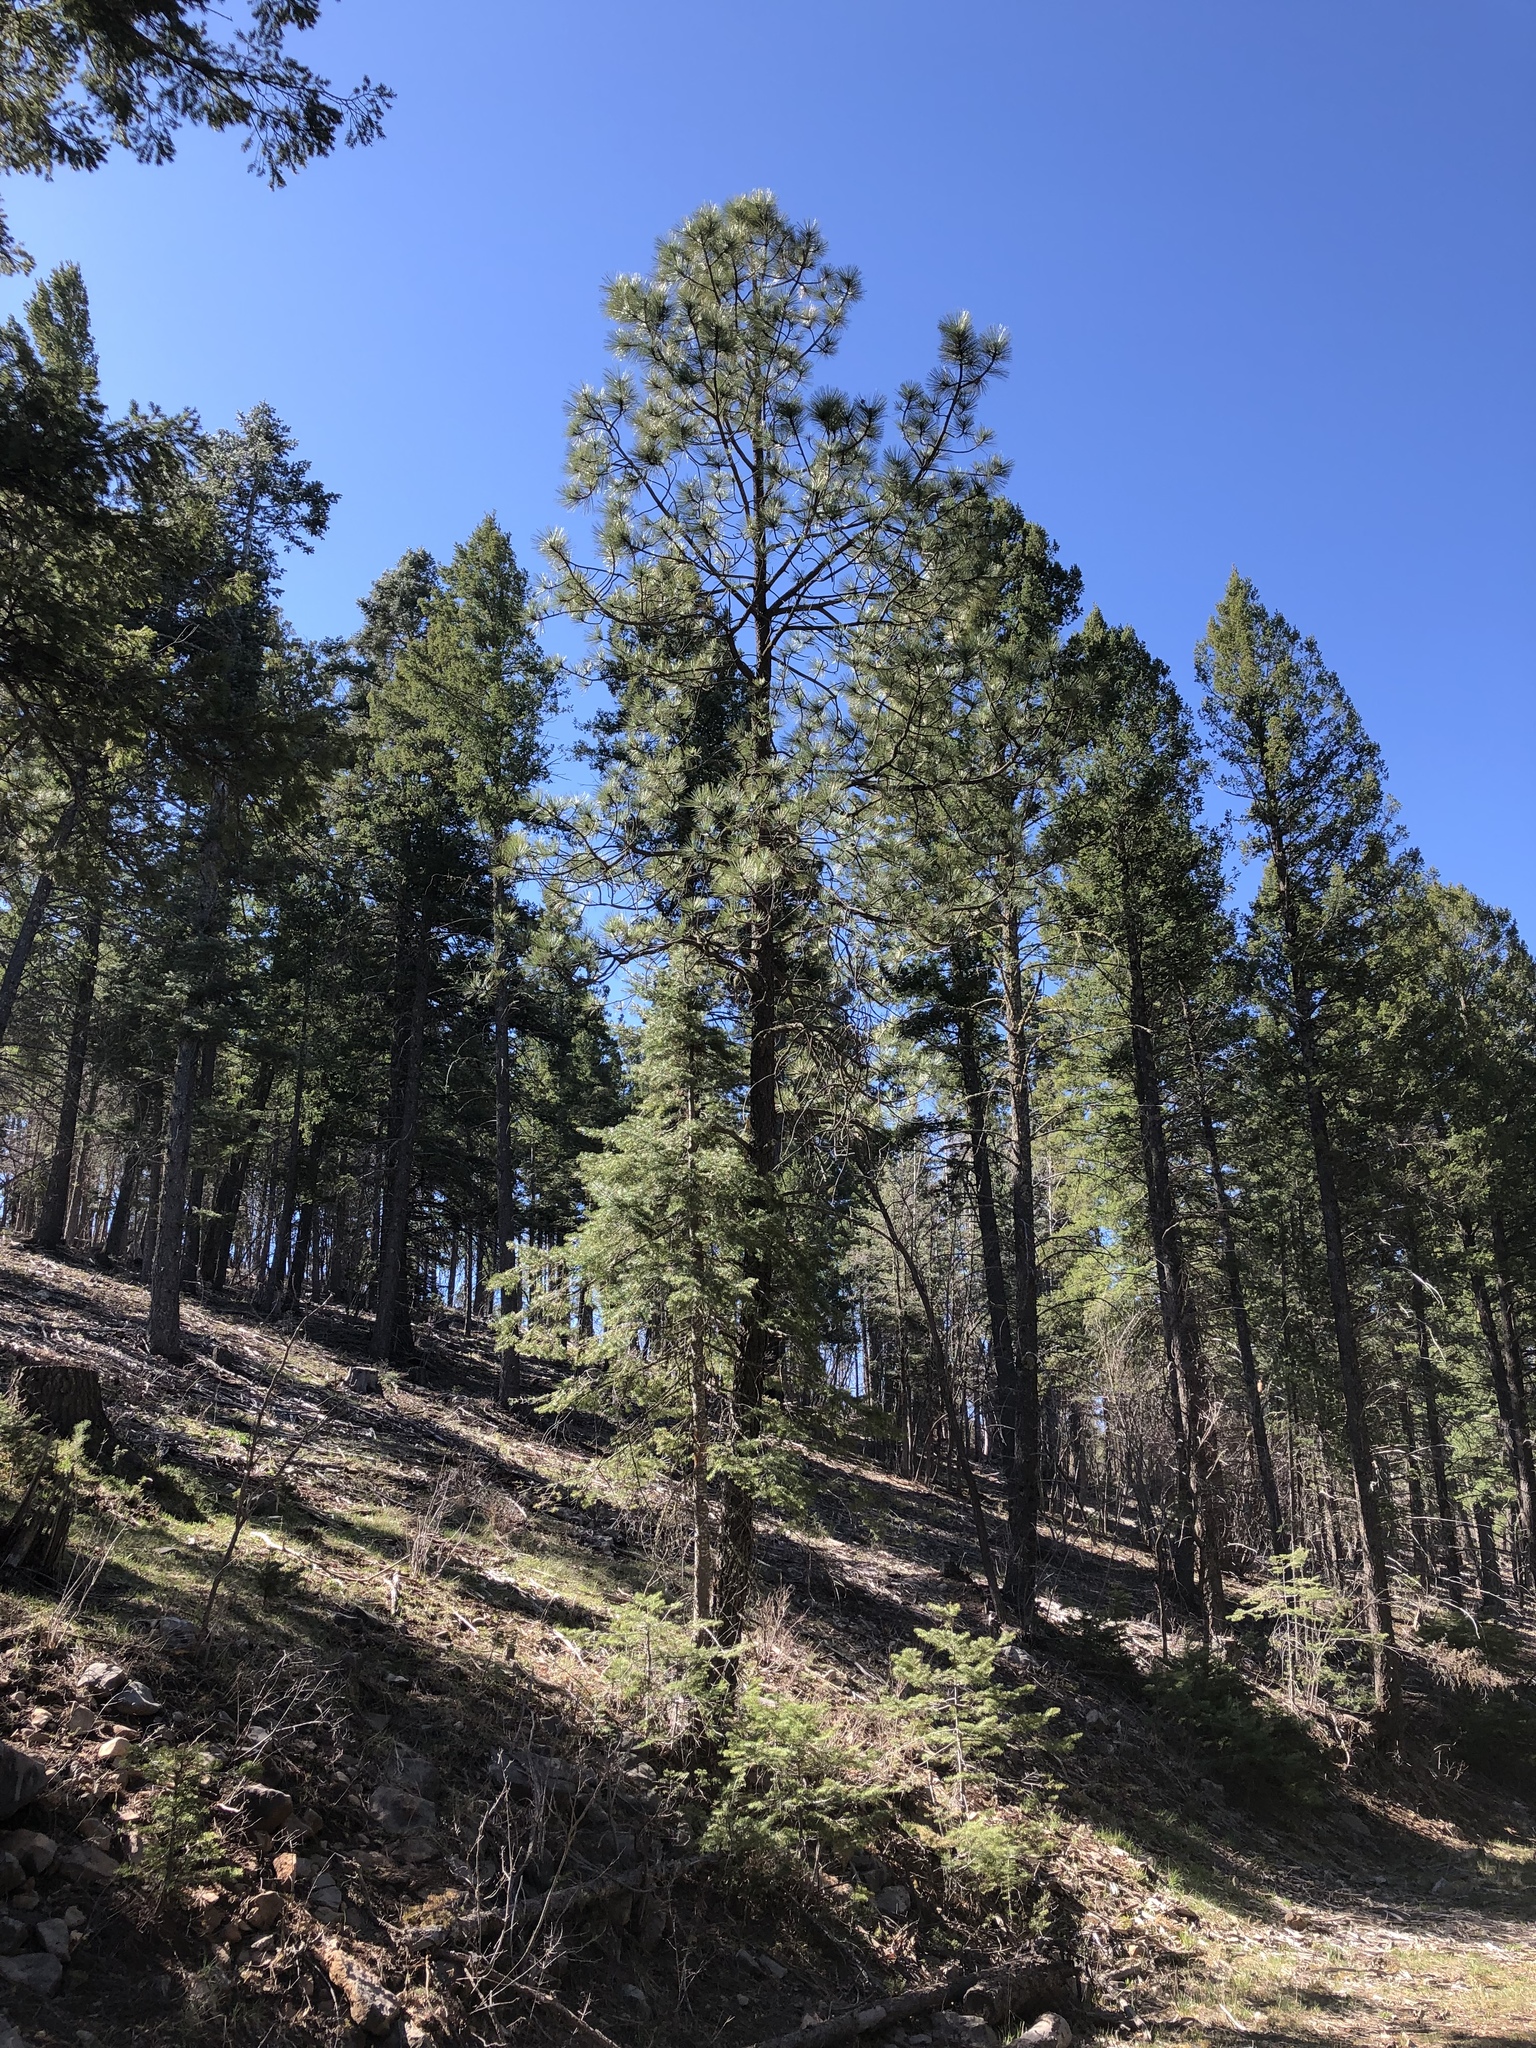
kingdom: Plantae
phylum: Tracheophyta
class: Pinopsida
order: Pinales
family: Pinaceae
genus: Pinus
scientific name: Pinus ponderosa
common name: Western yellow-pine
